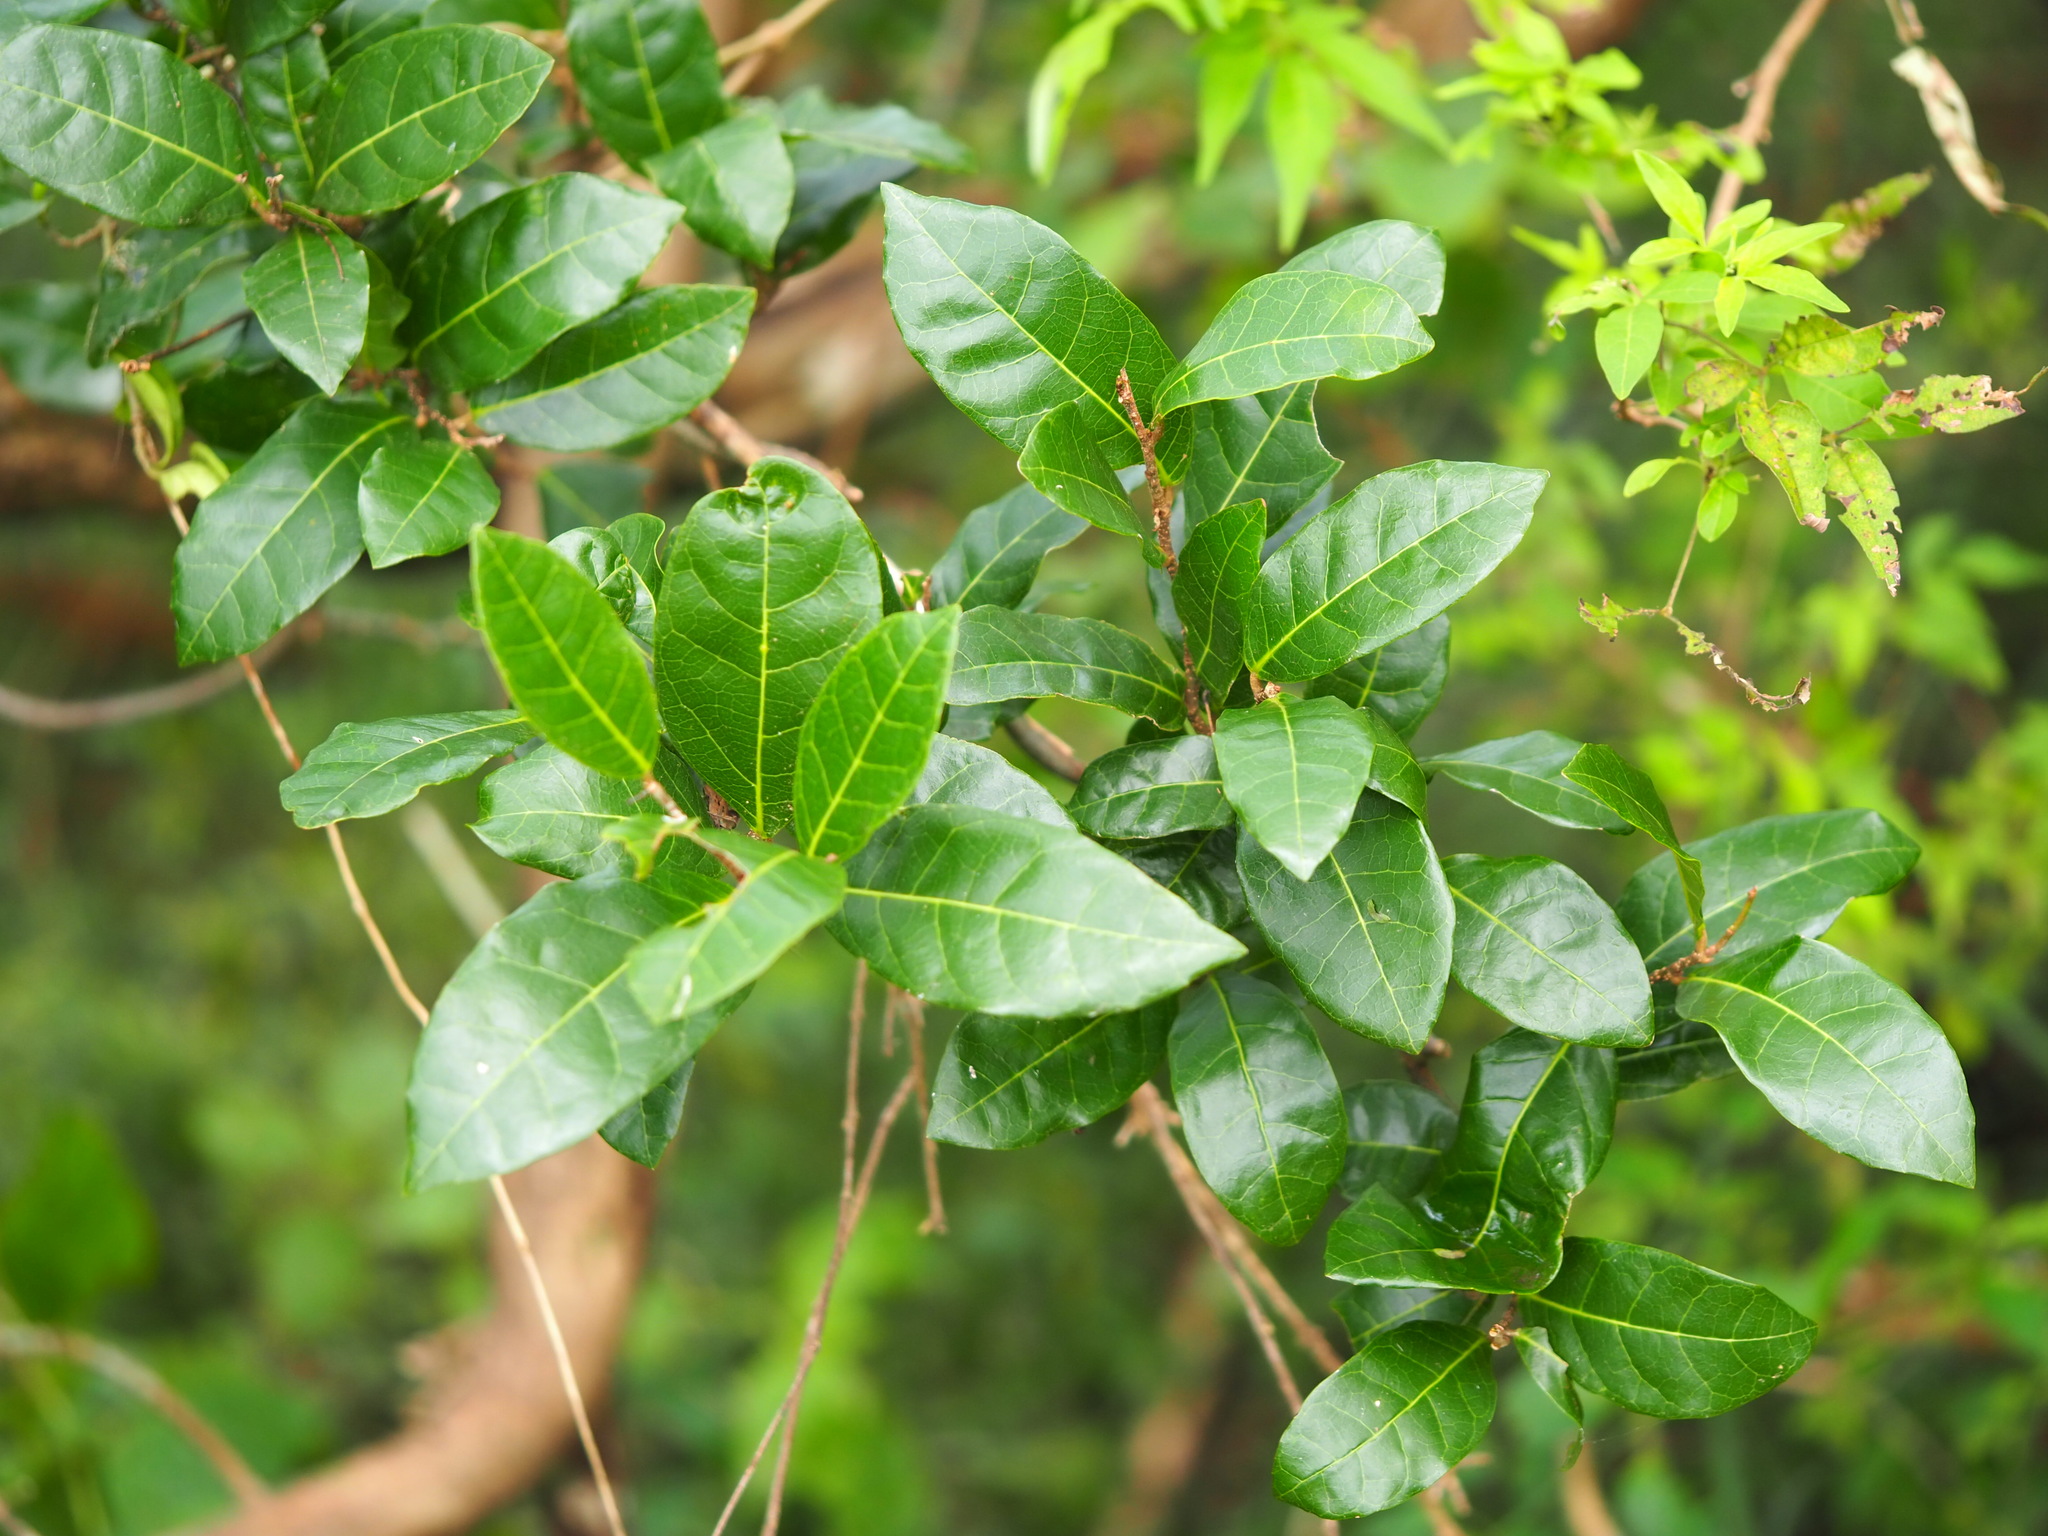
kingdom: Plantae
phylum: Tracheophyta
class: Magnoliopsida
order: Rosales
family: Moraceae
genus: Malaisia
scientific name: Malaisia scandens
